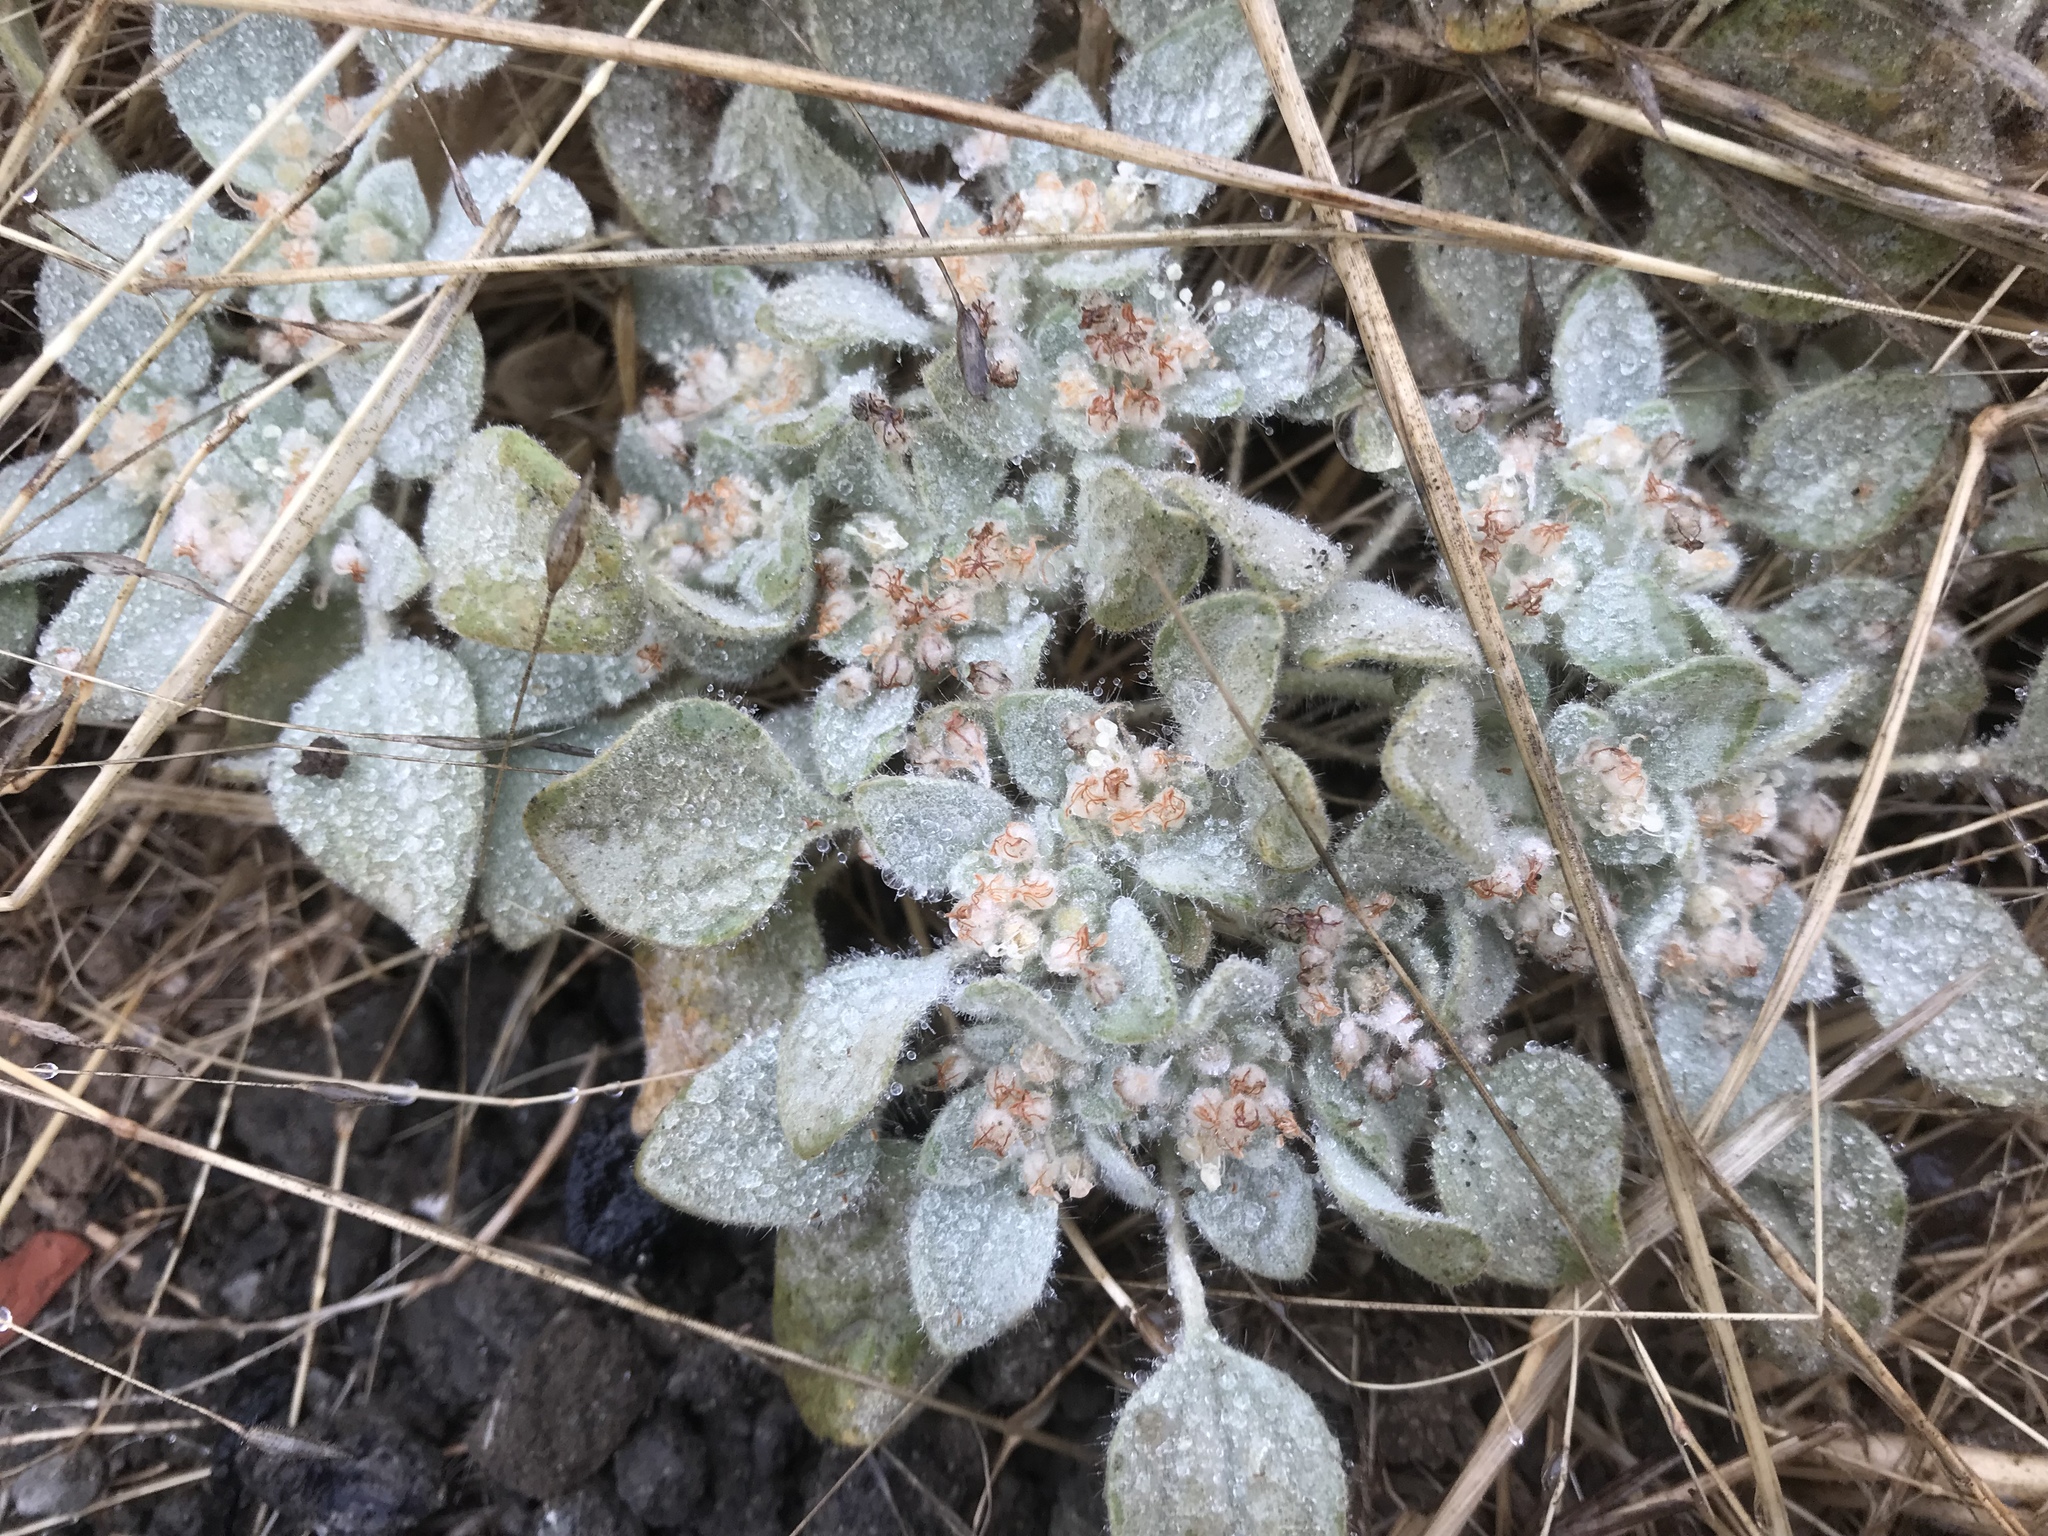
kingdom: Plantae
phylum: Tracheophyta
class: Magnoliopsida
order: Malpighiales
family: Euphorbiaceae
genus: Croton
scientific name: Croton setiger
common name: Dove weed
